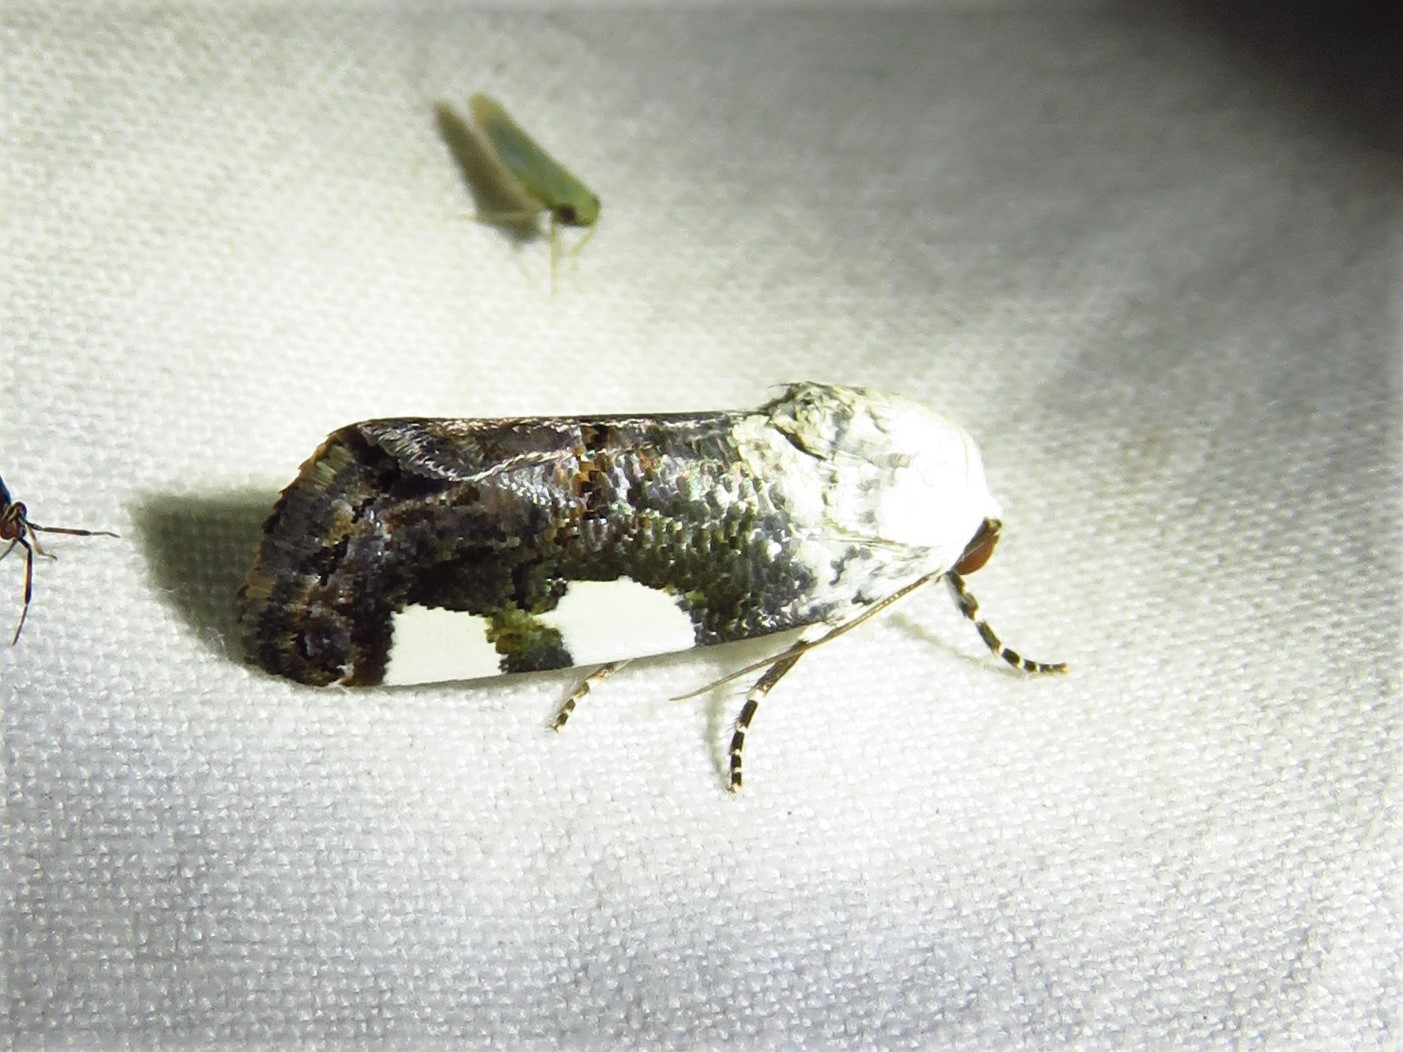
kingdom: Animalia
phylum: Arthropoda
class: Insecta
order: Lepidoptera
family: Noctuidae
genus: Acontia
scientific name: Acontia quadriplaga
